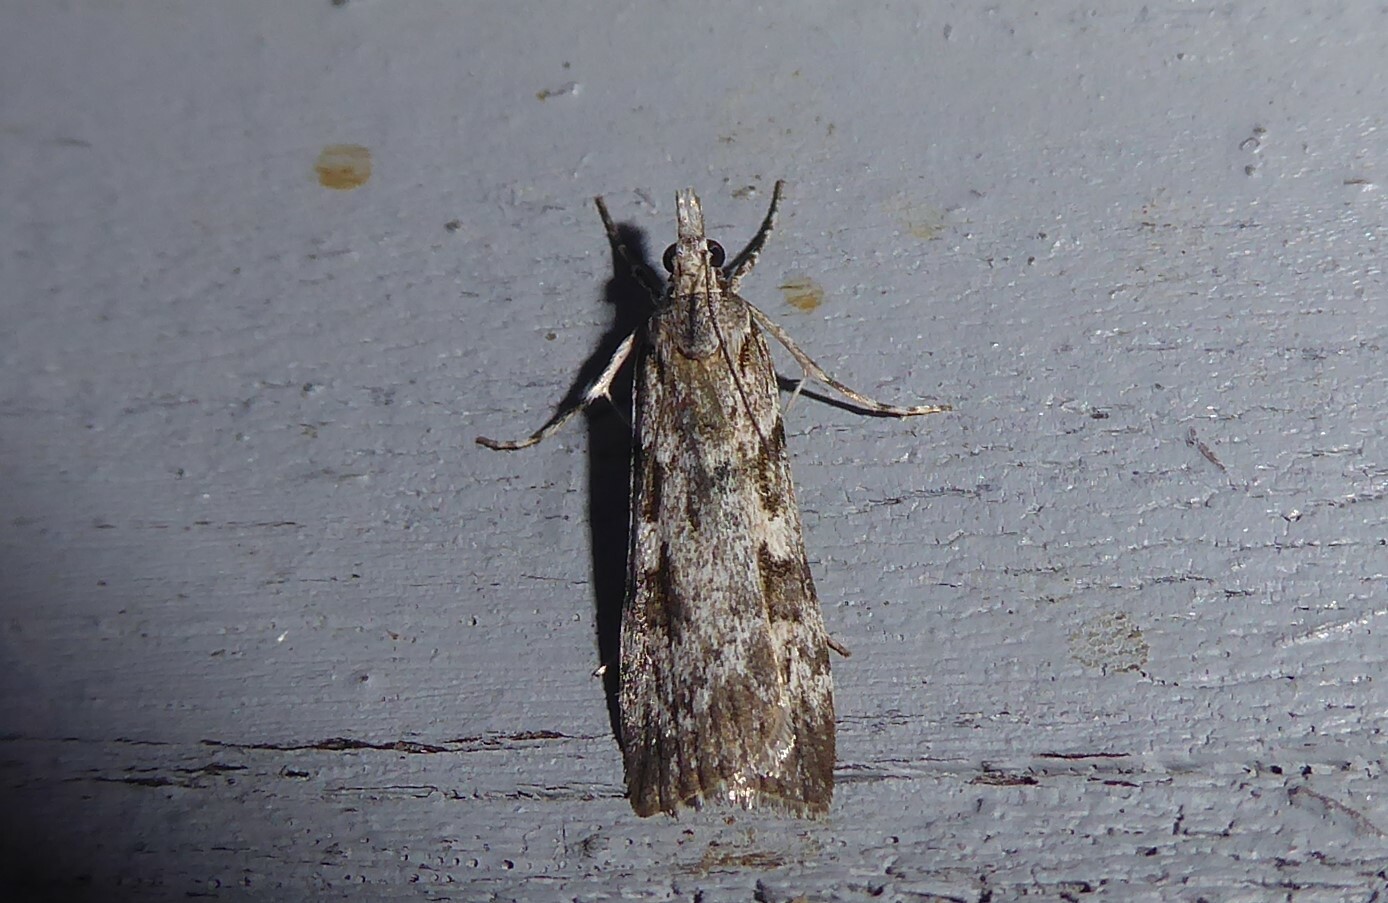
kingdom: Animalia
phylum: Arthropoda
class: Insecta
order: Lepidoptera
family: Crambidae
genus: Scoparia
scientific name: Scoparia halopis
